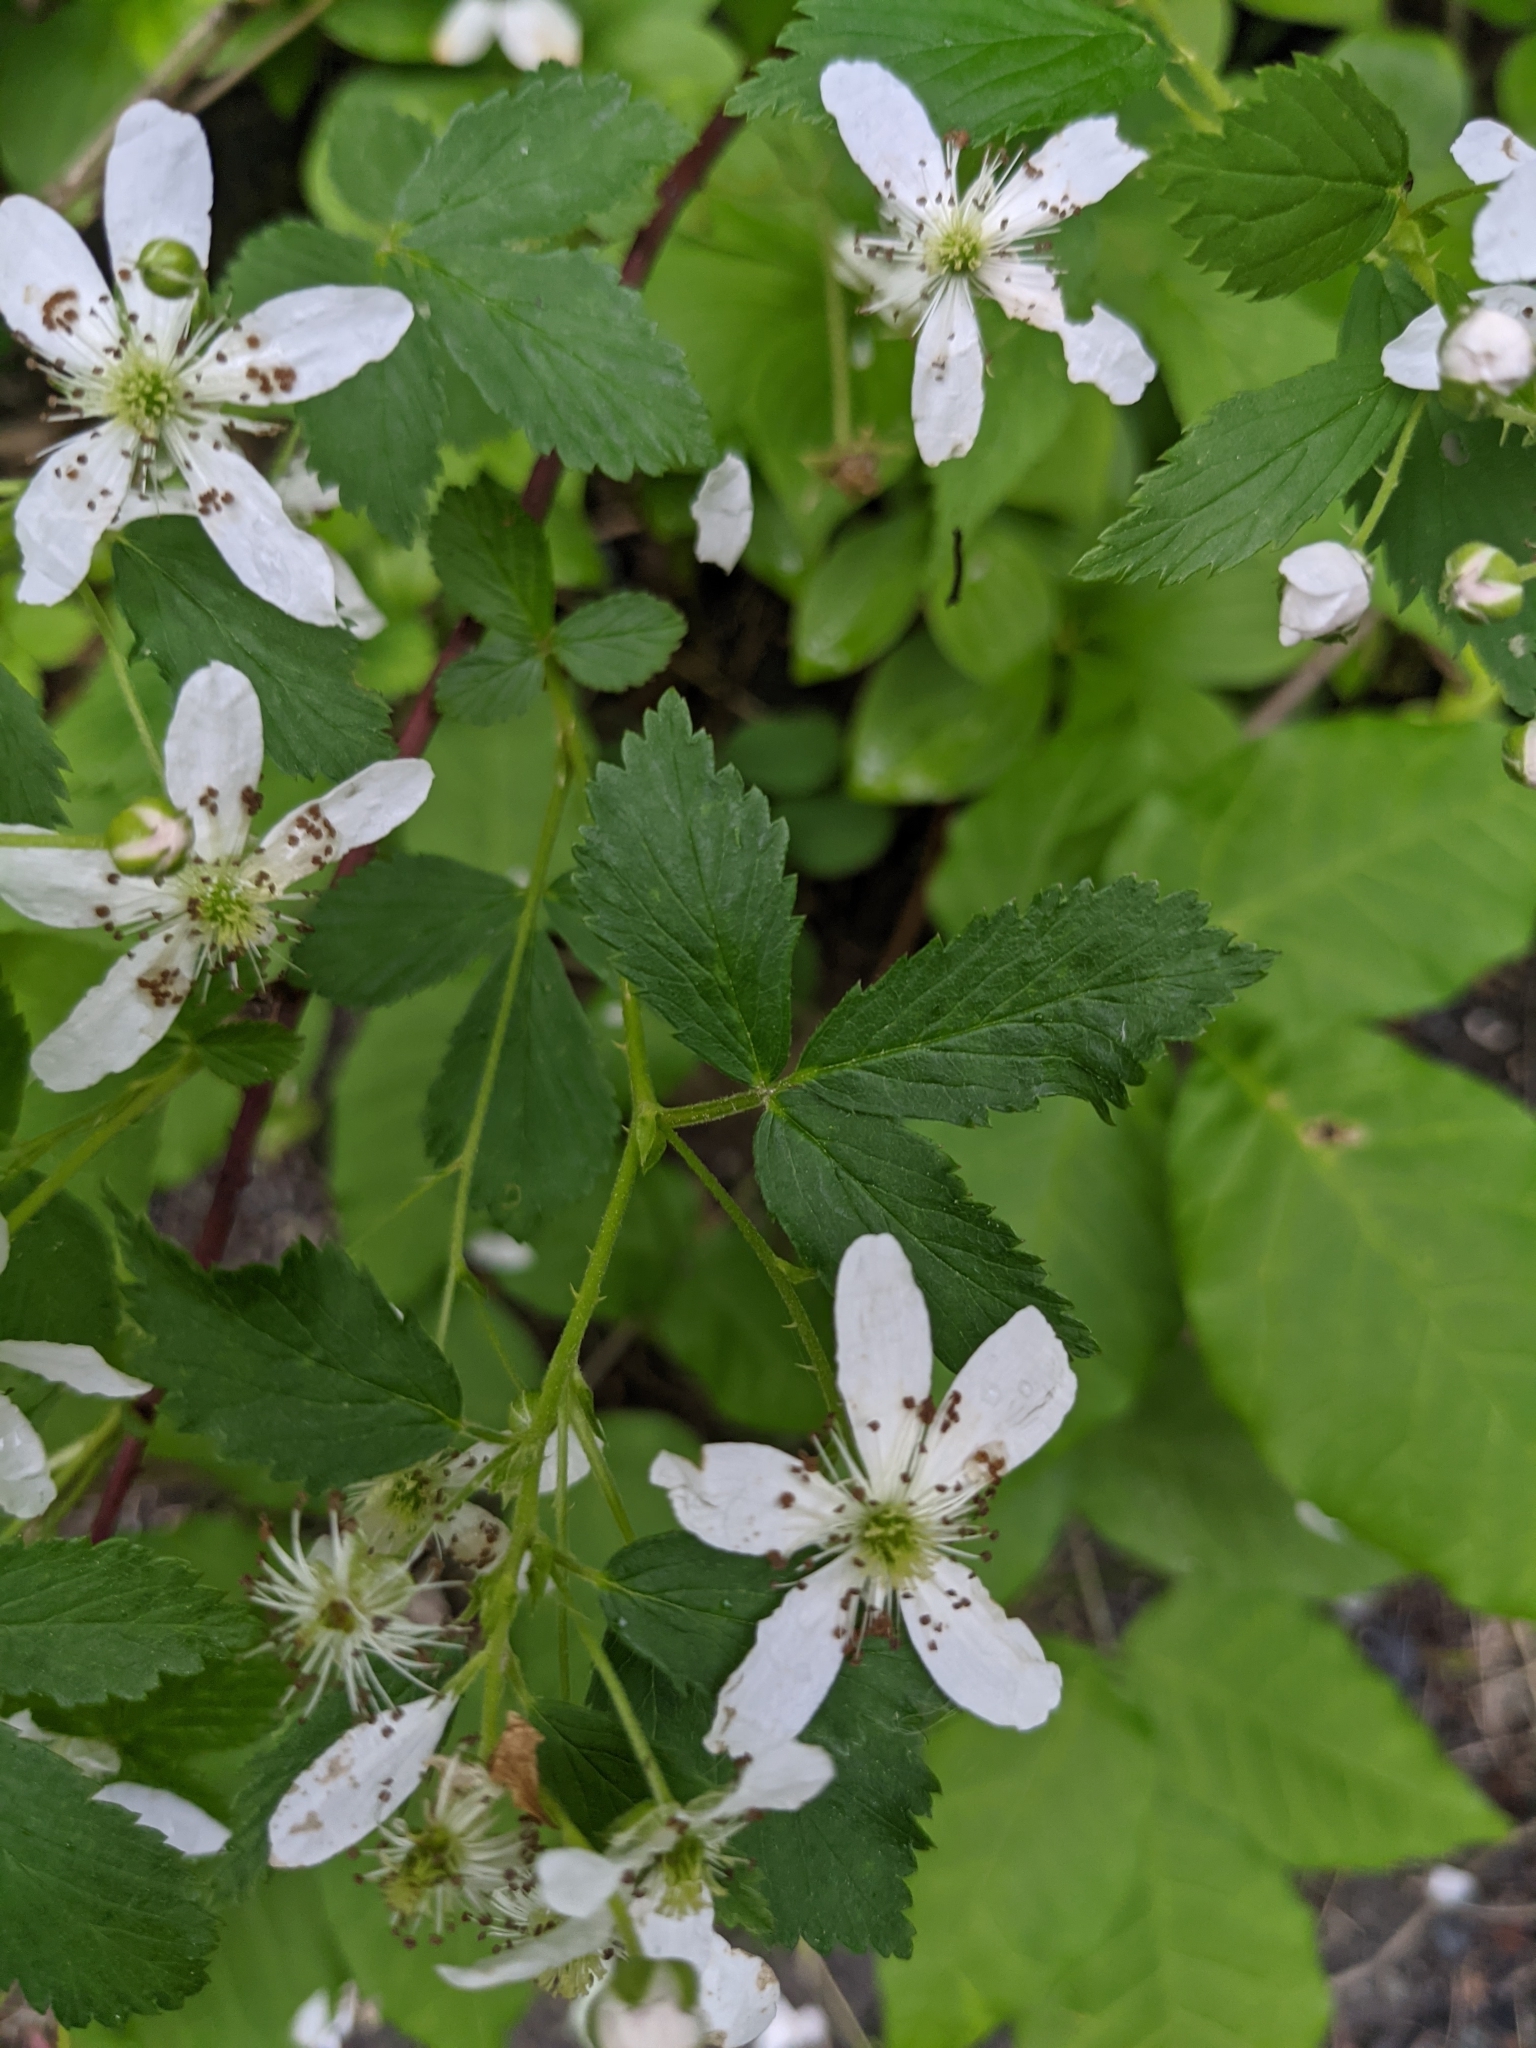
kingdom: Plantae
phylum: Tracheophyta
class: Magnoliopsida
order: Rosales
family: Rosaceae
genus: Rubus
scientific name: Rubus hispidus
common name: Running blackberry
